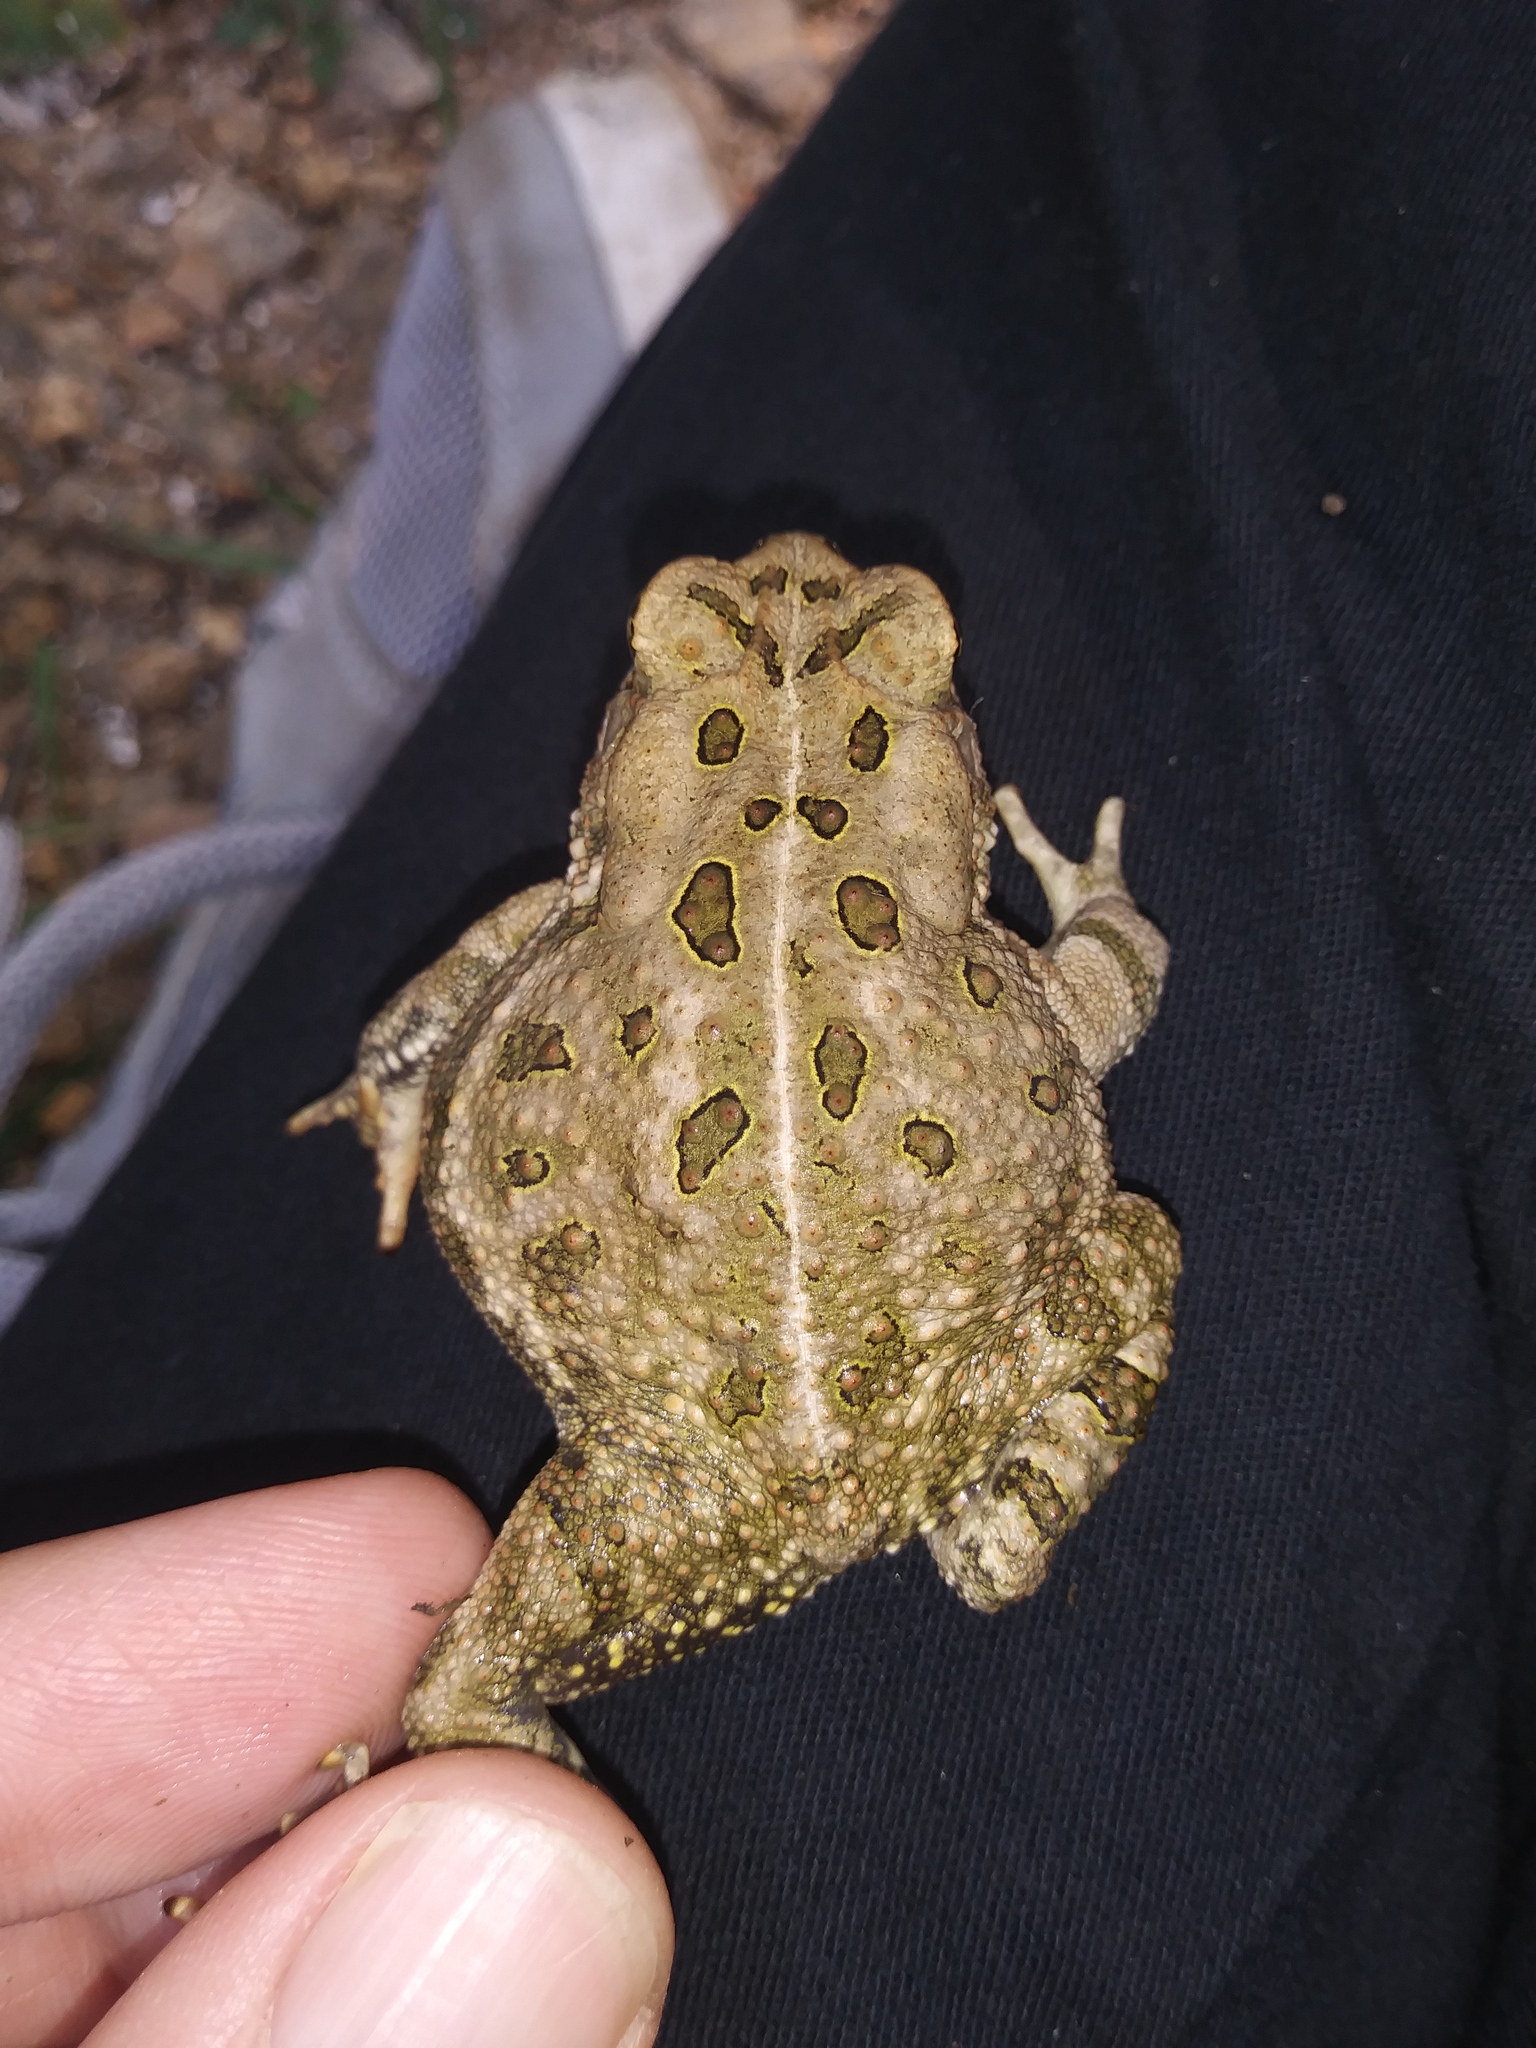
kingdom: Animalia
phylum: Chordata
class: Amphibia
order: Anura
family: Bufonidae
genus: Anaxyrus
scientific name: Anaxyrus fowleri
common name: Fowler's toad
